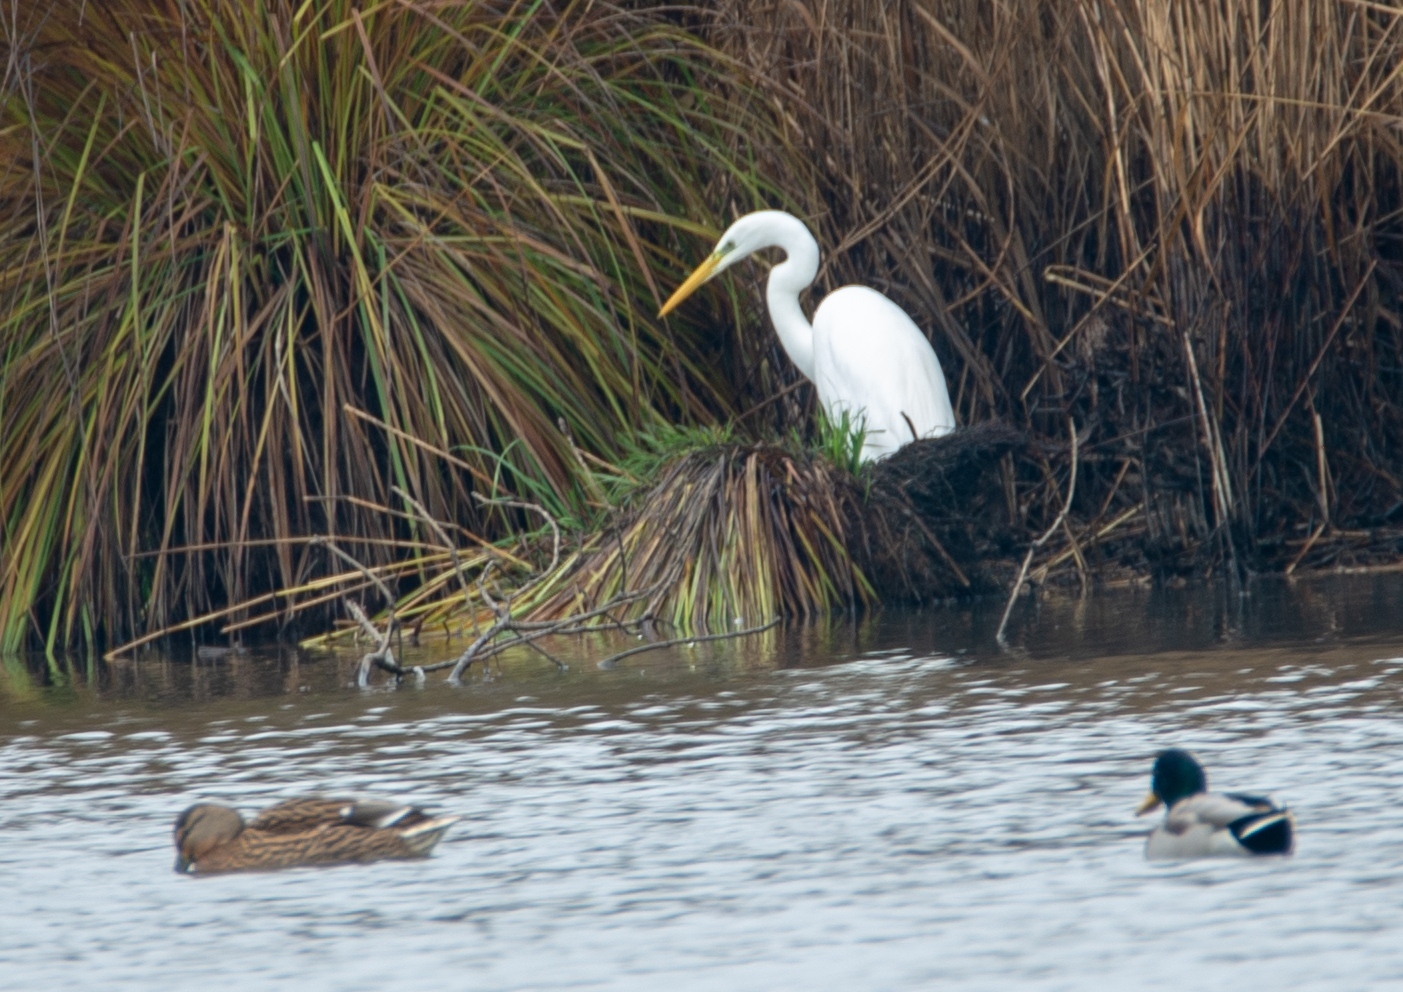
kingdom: Animalia
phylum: Chordata
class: Aves
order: Pelecaniformes
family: Ardeidae
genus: Ardea
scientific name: Ardea alba
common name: Great egret
